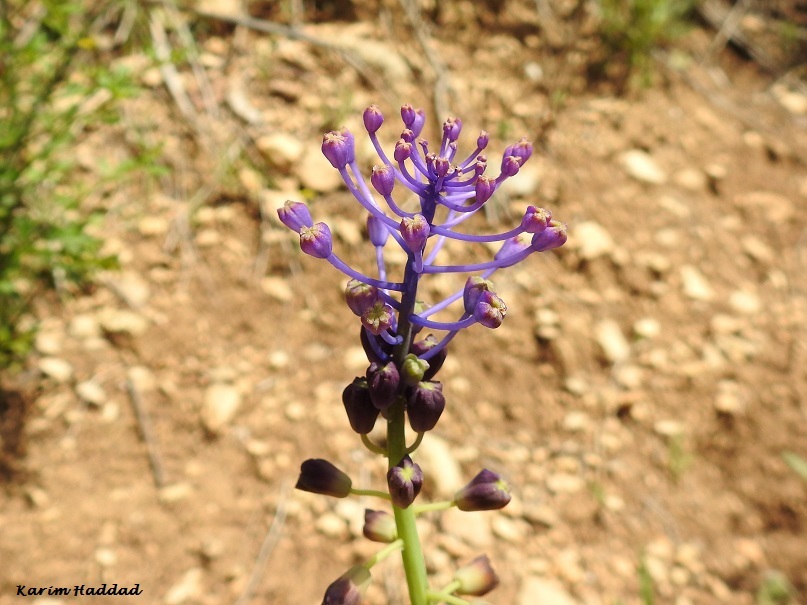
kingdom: Plantae
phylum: Tracheophyta
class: Liliopsida
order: Asparagales
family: Asparagaceae
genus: Muscari
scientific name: Muscari comosum
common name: Tassel hyacinth
